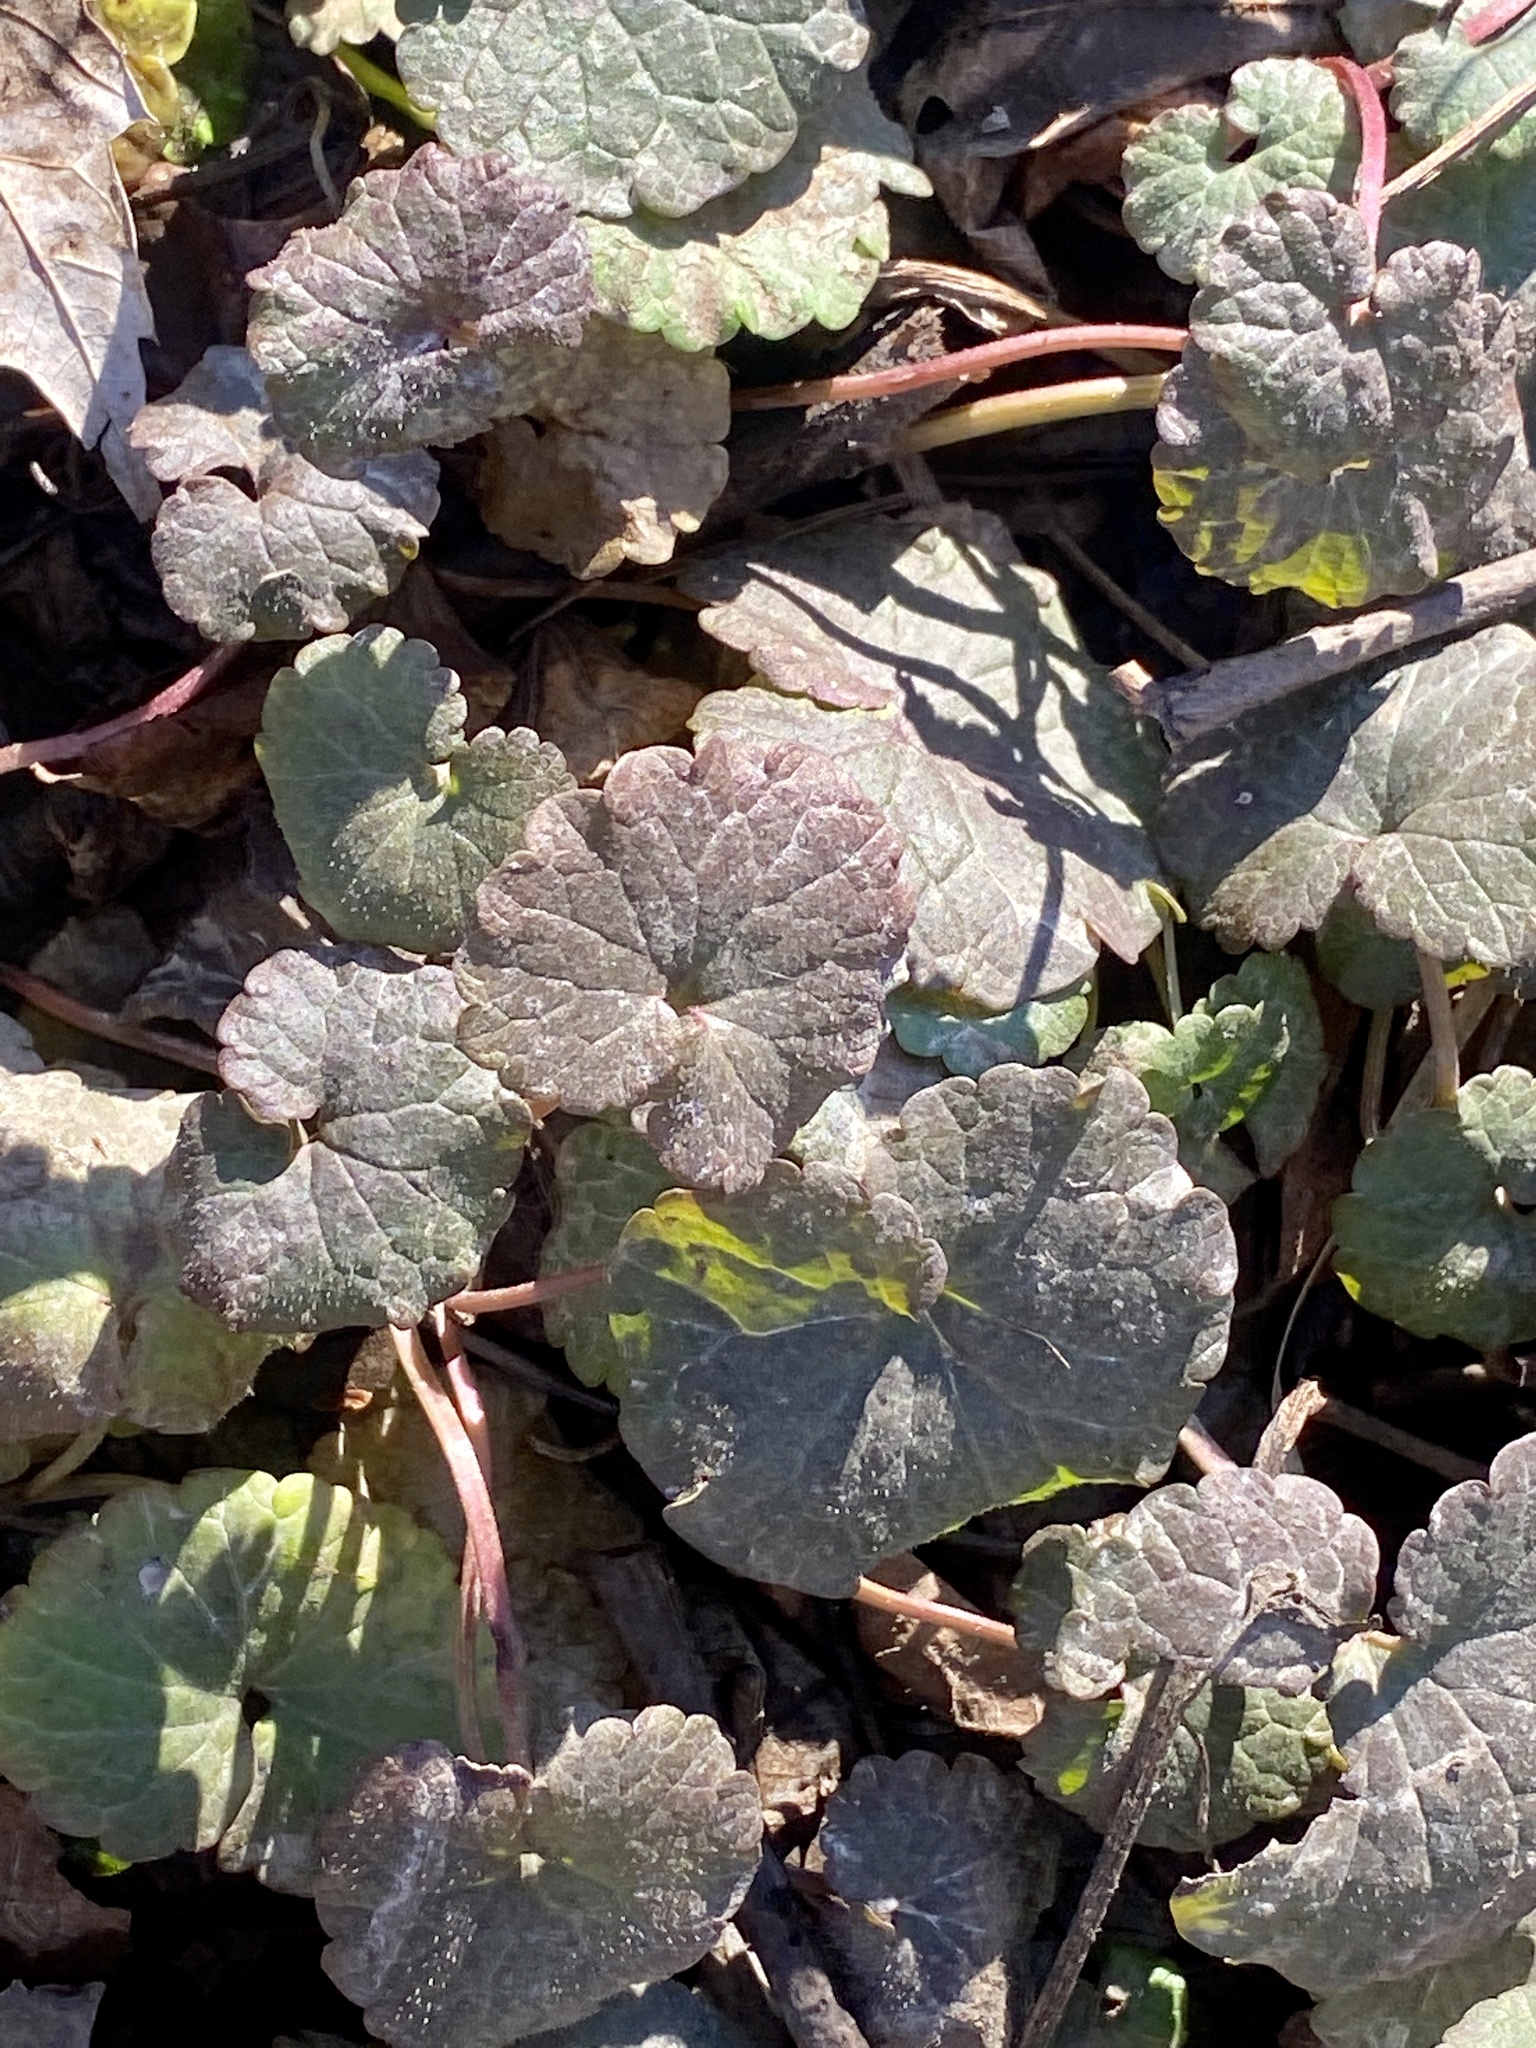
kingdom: Plantae
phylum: Tracheophyta
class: Magnoliopsida
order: Lamiales
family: Lamiaceae
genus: Glechoma
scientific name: Glechoma hederacea
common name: Ground ivy
